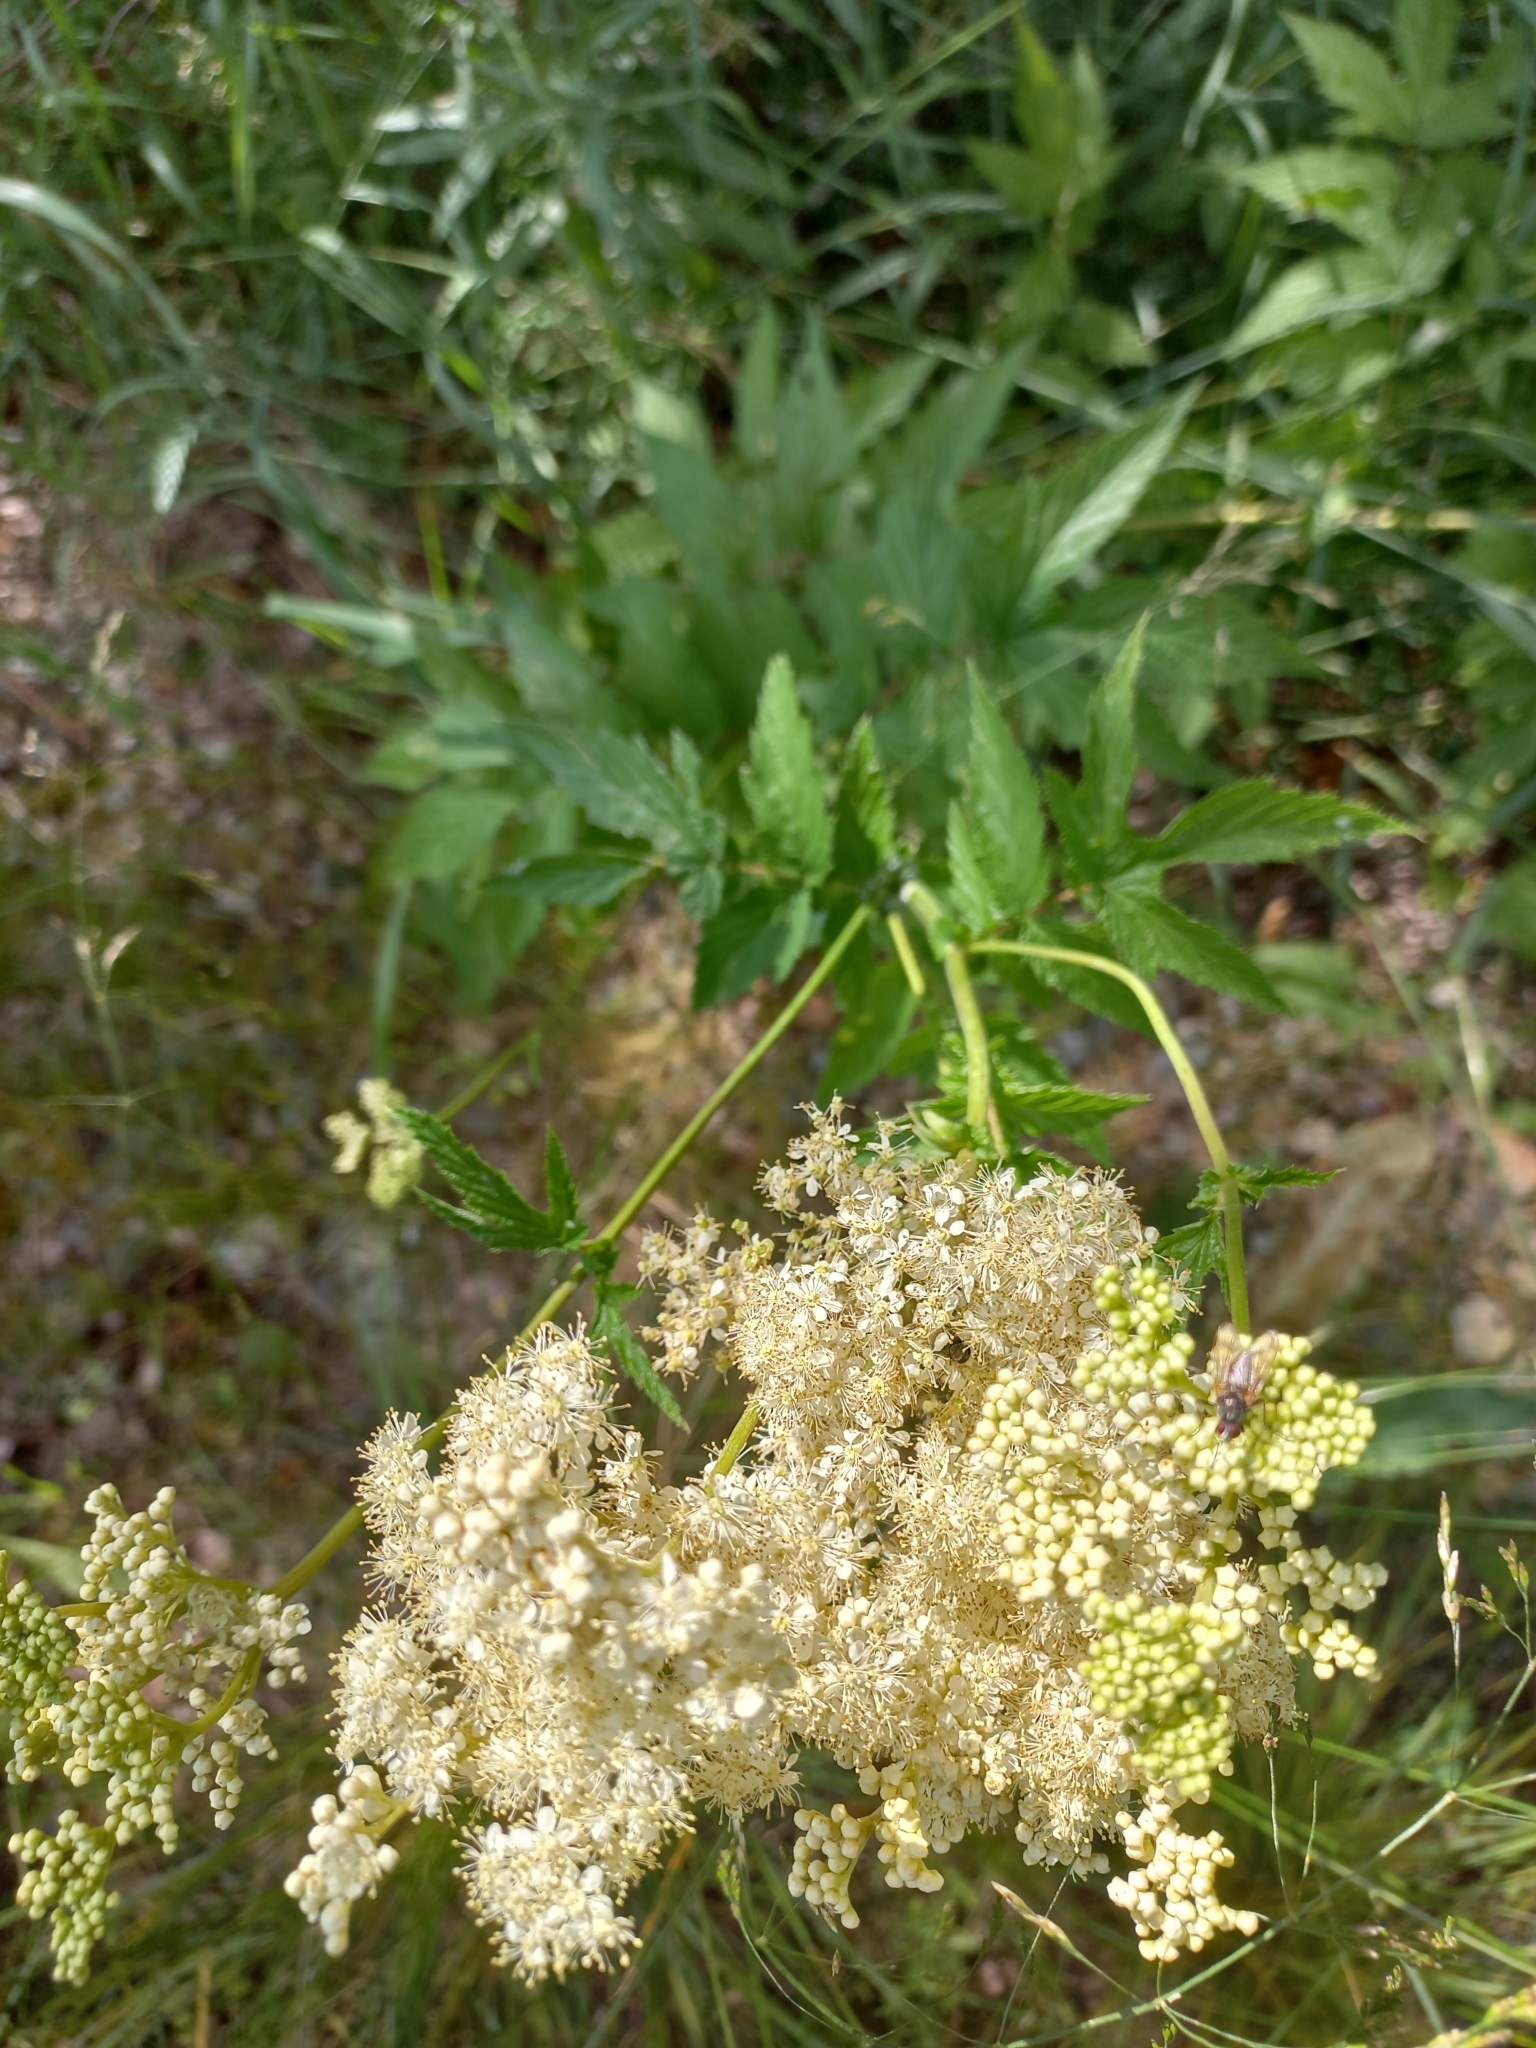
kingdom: Plantae
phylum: Tracheophyta
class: Magnoliopsida
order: Rosales
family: Rosaceae
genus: Filipendula
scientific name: Filipendula ulmaria
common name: Meadowsweet
